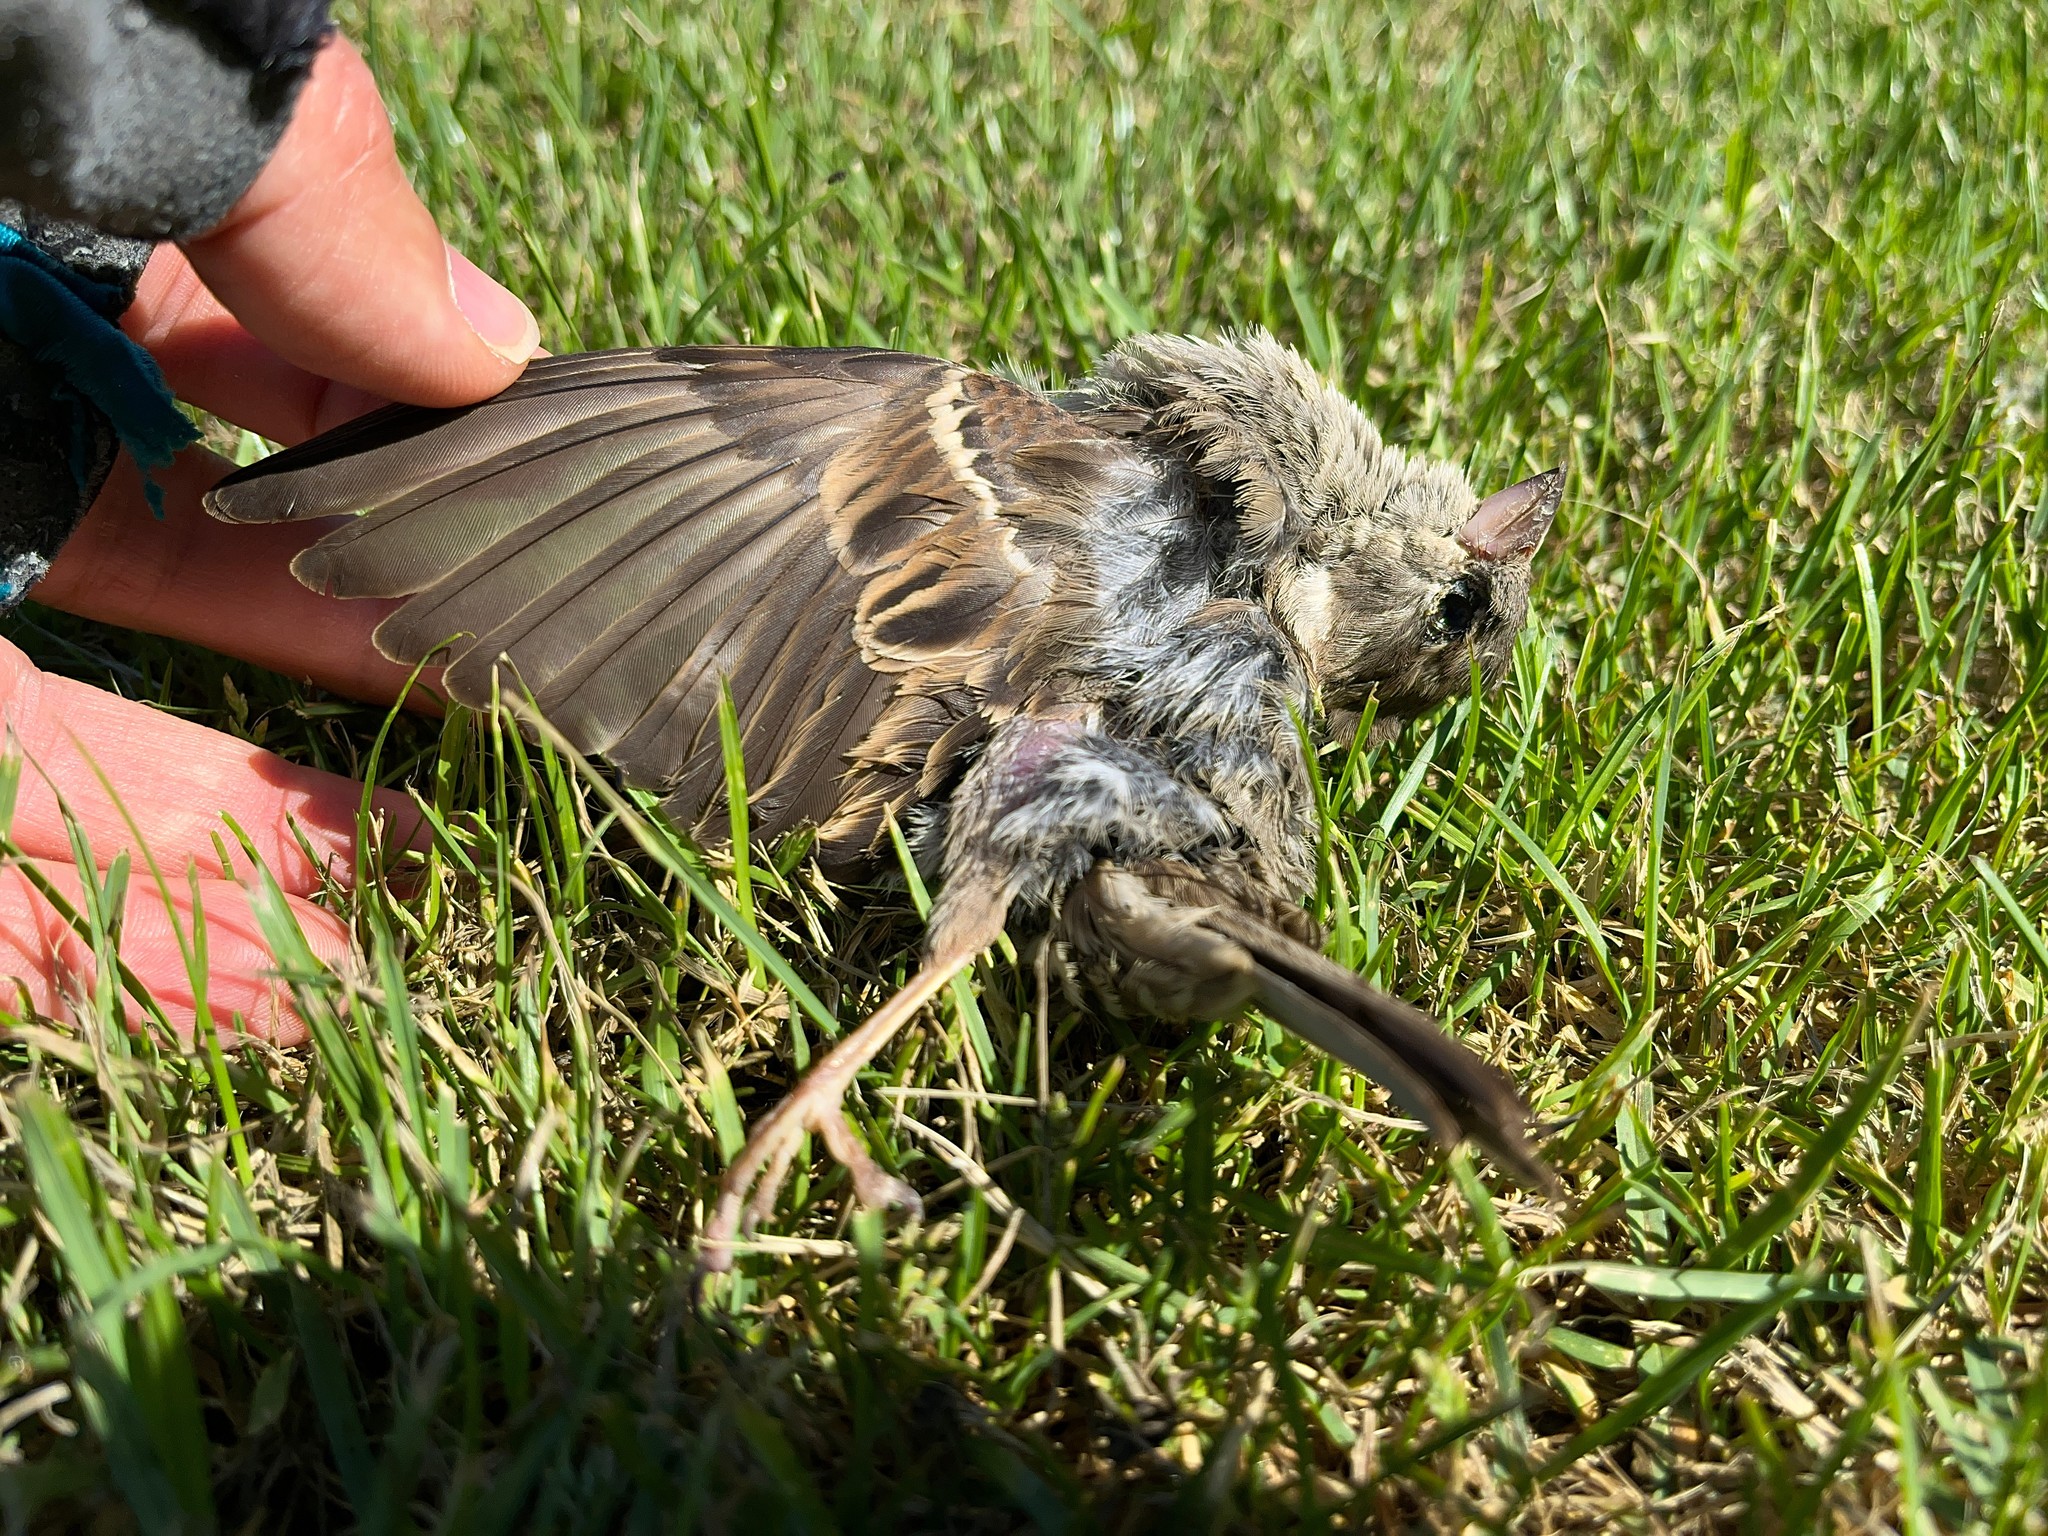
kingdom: Animalia
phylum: Chordata
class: Aves
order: Passeriformes
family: Passeridae
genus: Passer
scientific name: Passer domesticus
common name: House sparrow
